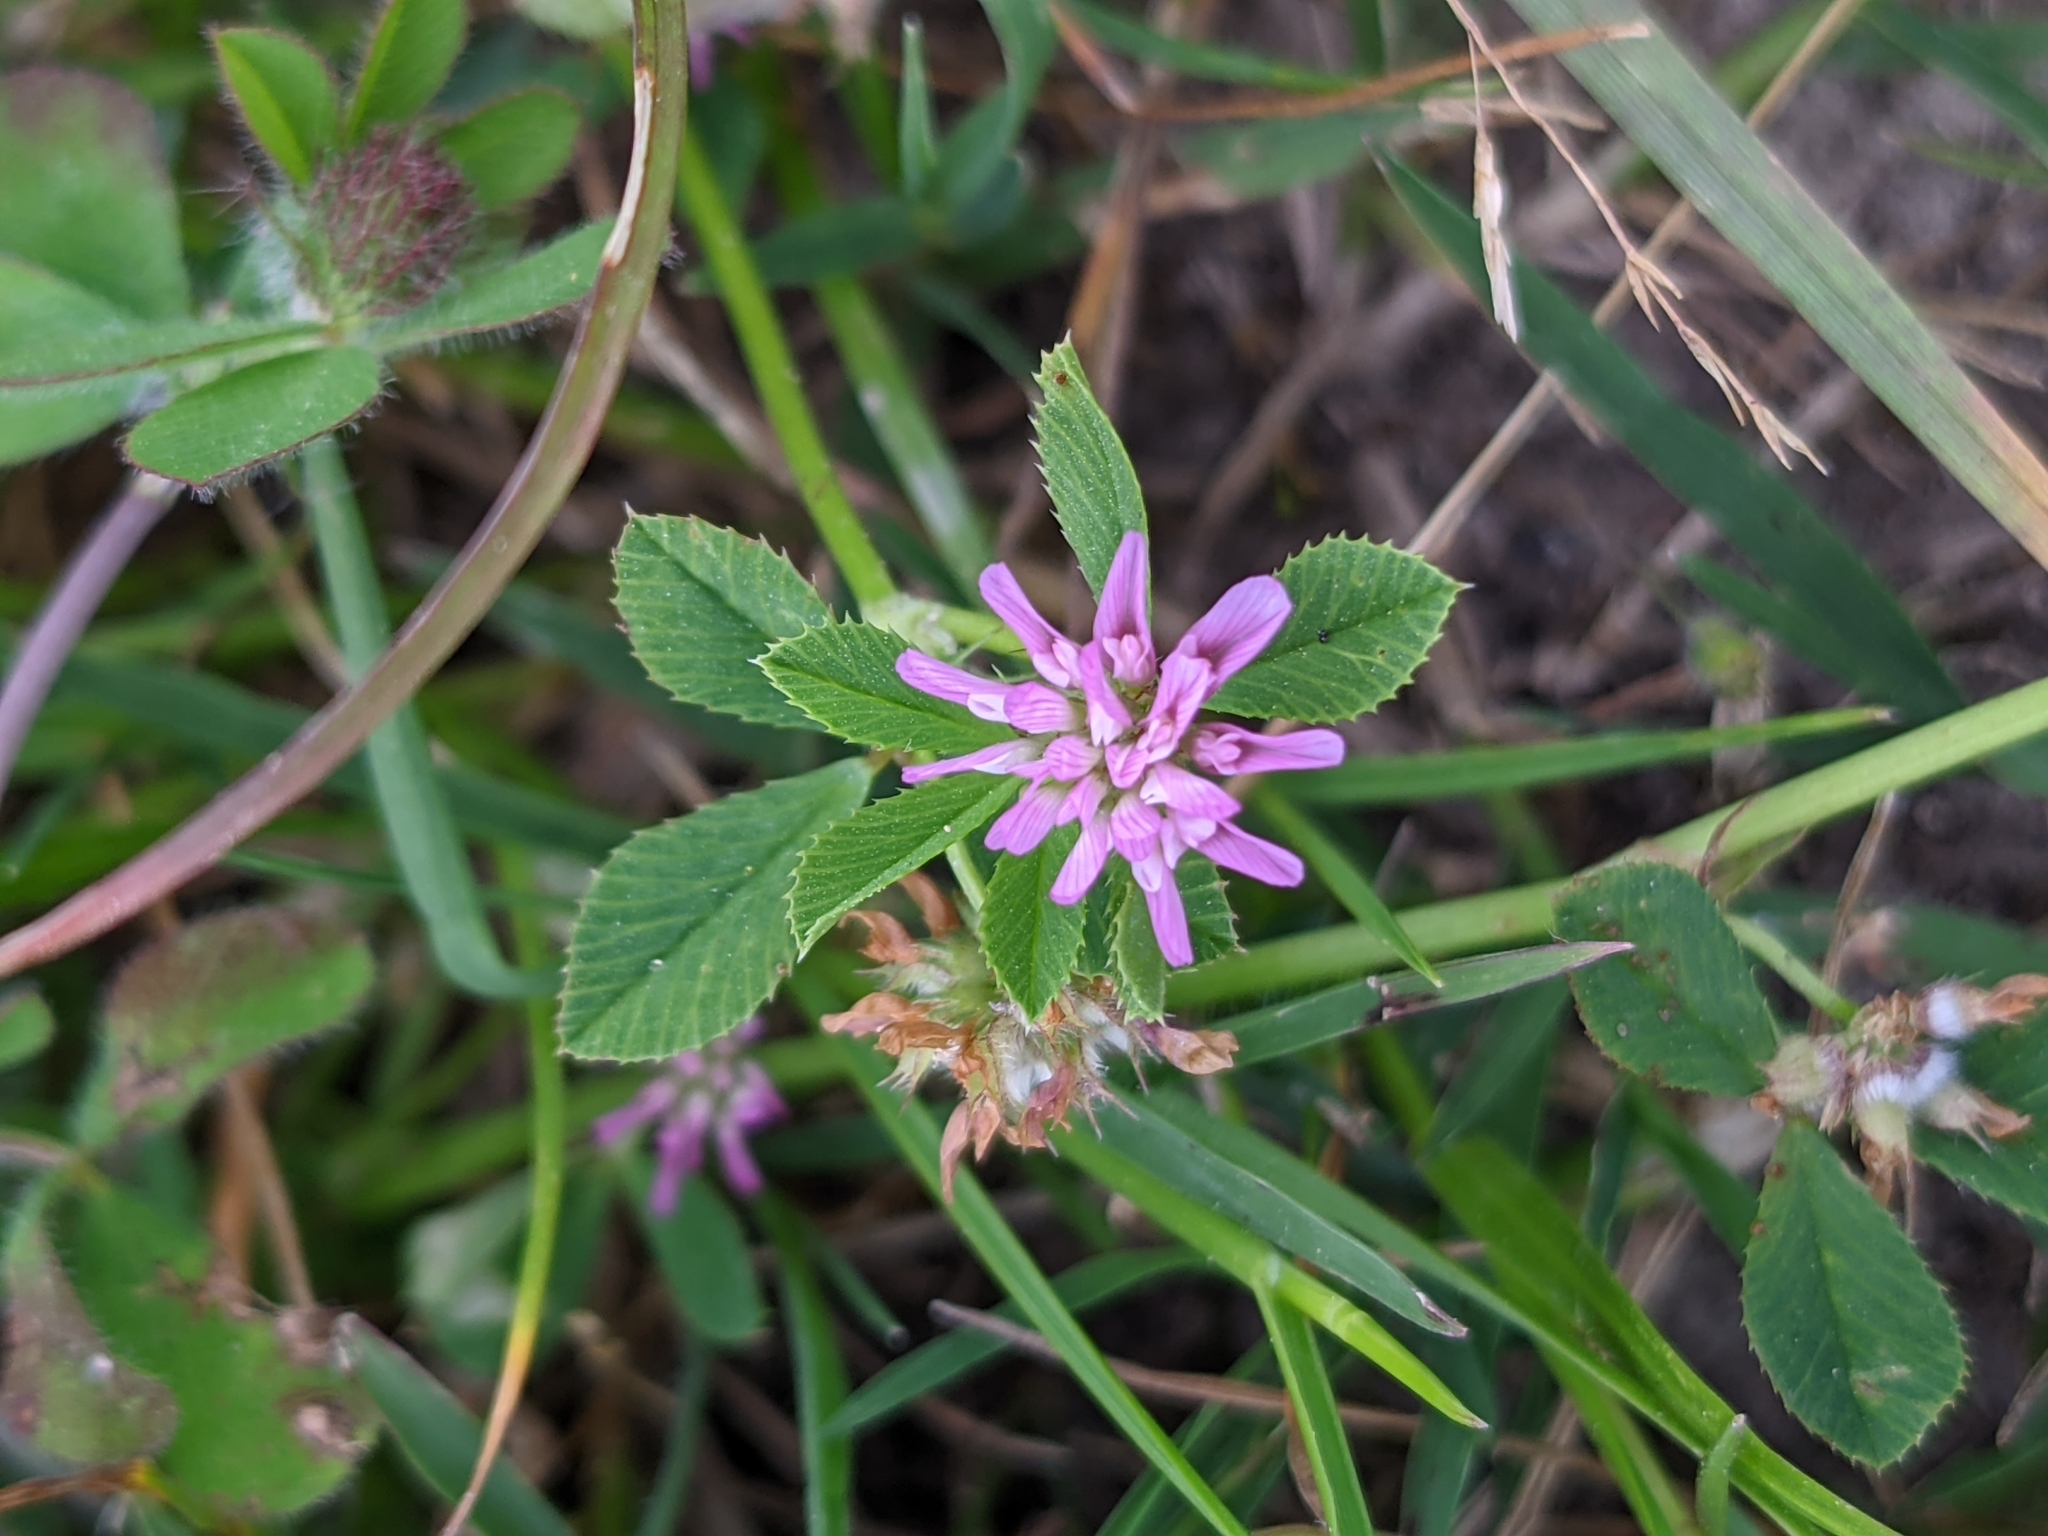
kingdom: Plantae
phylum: Tracheophyta
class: Magnoliopsida
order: Fabales
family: Fabaceae
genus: Trifolium
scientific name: Trifolium resupinatum
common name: Reversed clover
